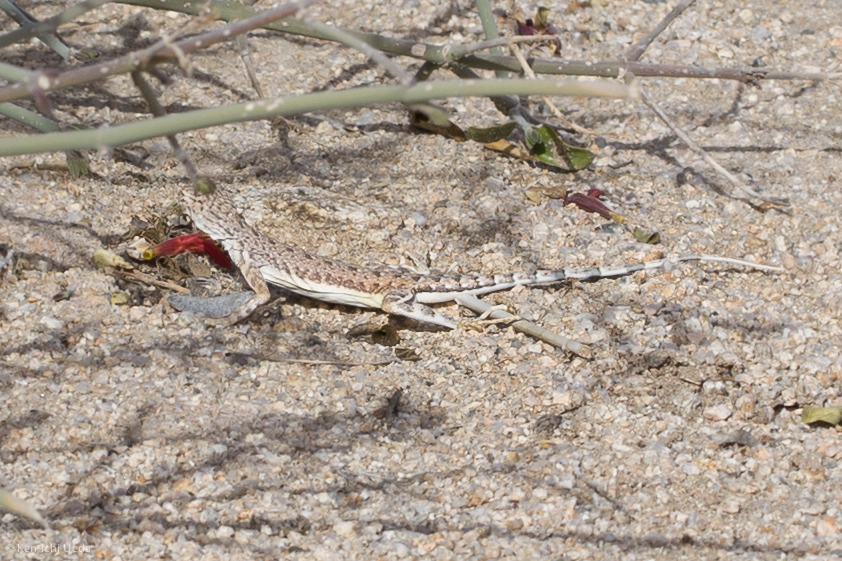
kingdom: Animalia
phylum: Chordata
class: Squamata
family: Phrynosomatidae
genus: Callisaurus
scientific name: Callisaurus draconoides
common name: Zebra-tailed lizard
